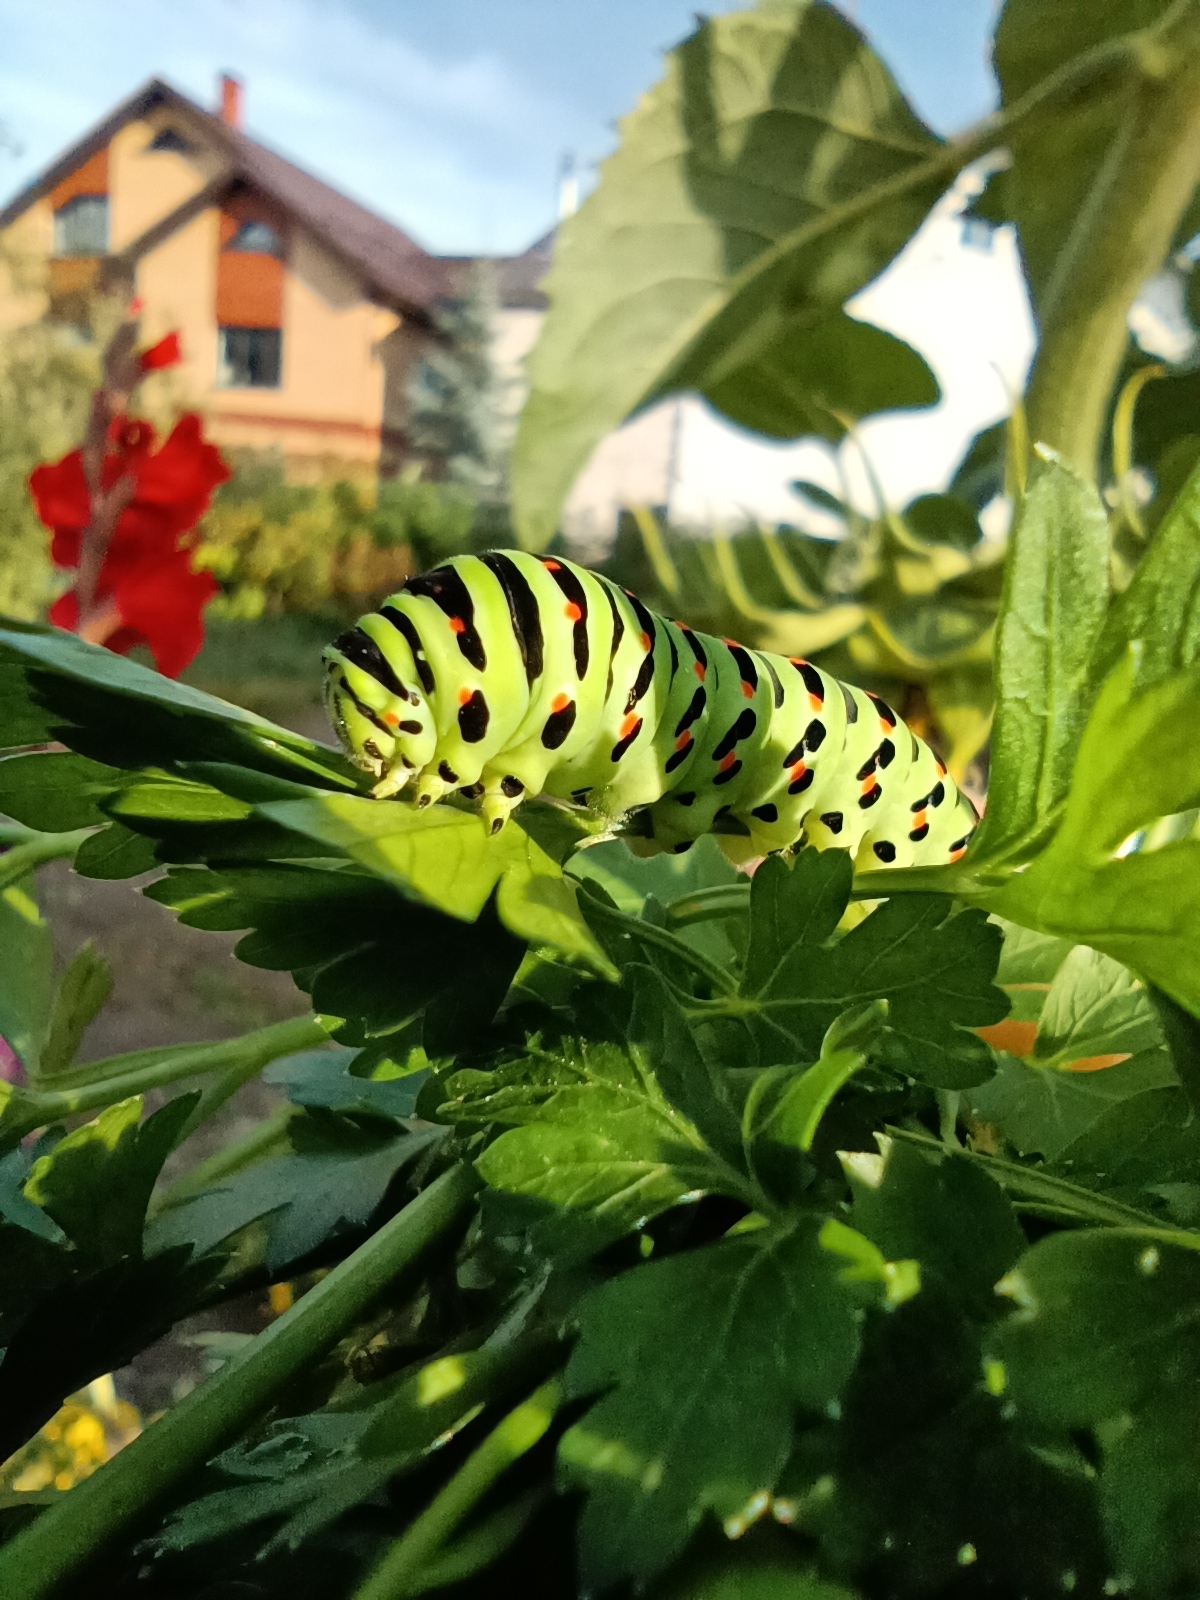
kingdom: Animalia
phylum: Arthropoda
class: Insecta
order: Lepidoptera
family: Papilionidae
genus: Papilio
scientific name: Papilio machaon
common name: Swallowtail
